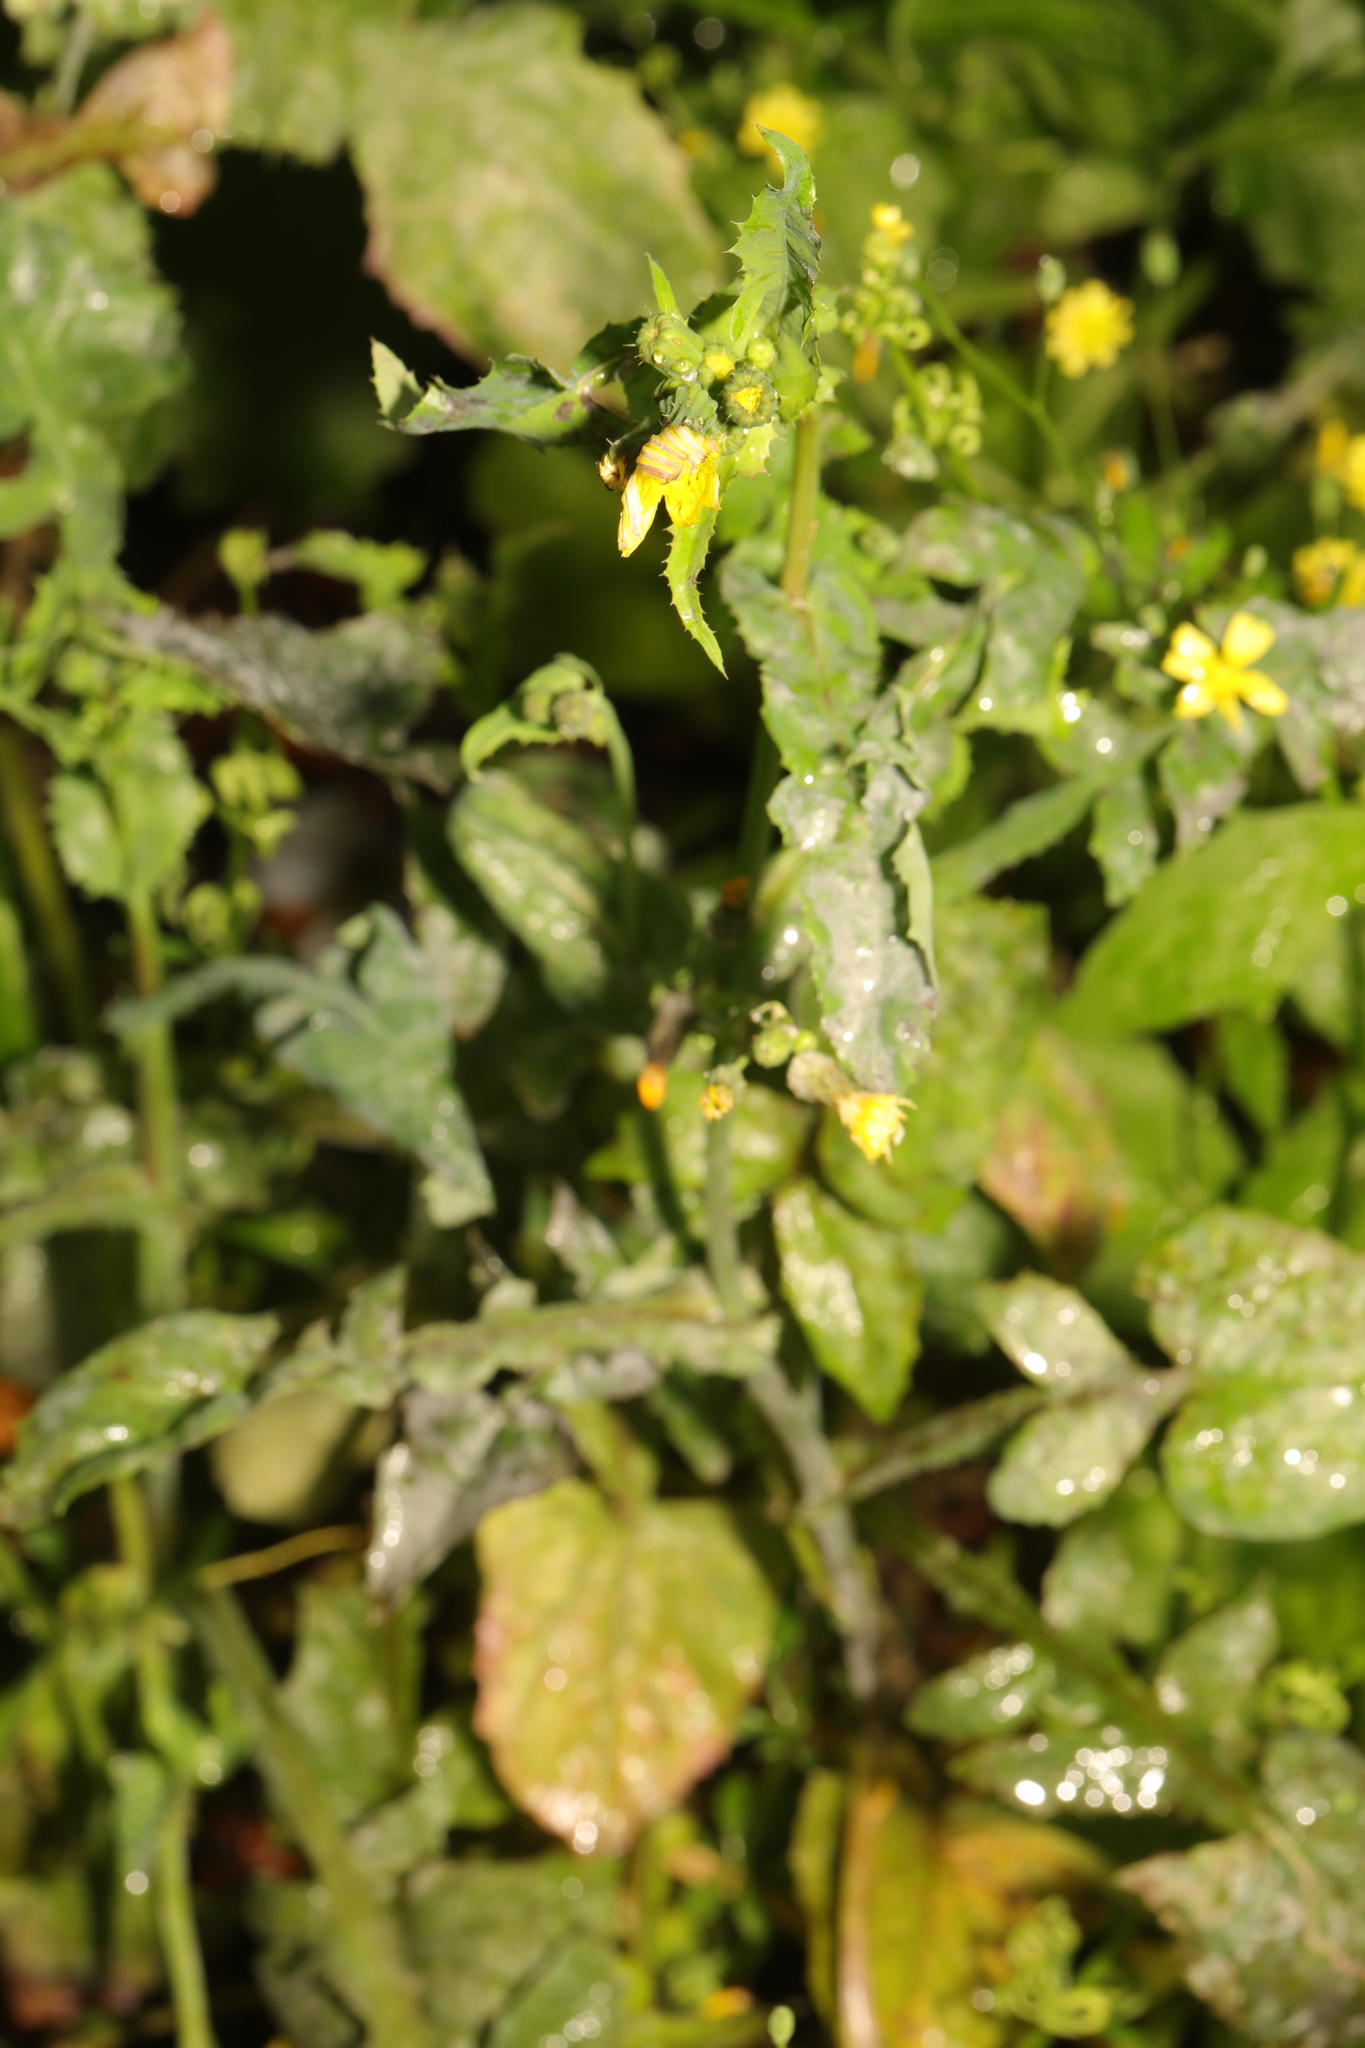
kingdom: Plantae
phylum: Tracheophyta
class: Magnoliopsida
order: Brassicales
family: Brassicaceae
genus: Sisymbrium
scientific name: Sisymbrium officinale
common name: Hedge mustard
